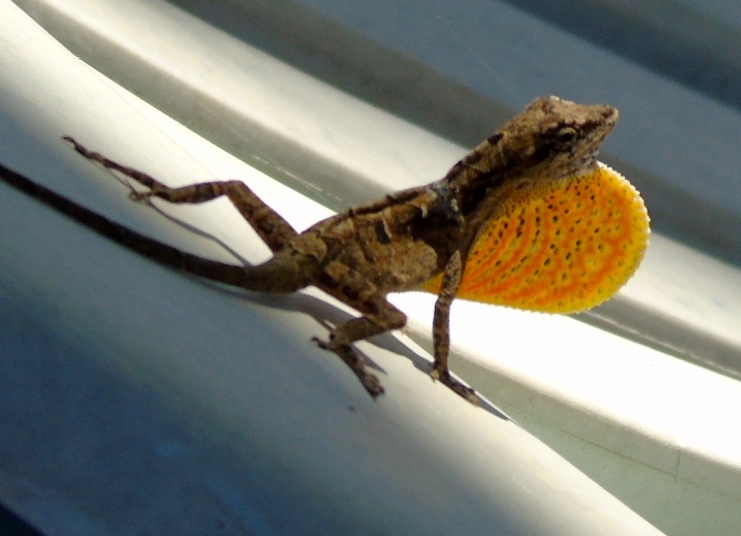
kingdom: Animalia
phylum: Chordata
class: Squamata
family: Dactyloidae
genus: Anolis
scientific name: Anolis nebulosus
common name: Clouded anole
